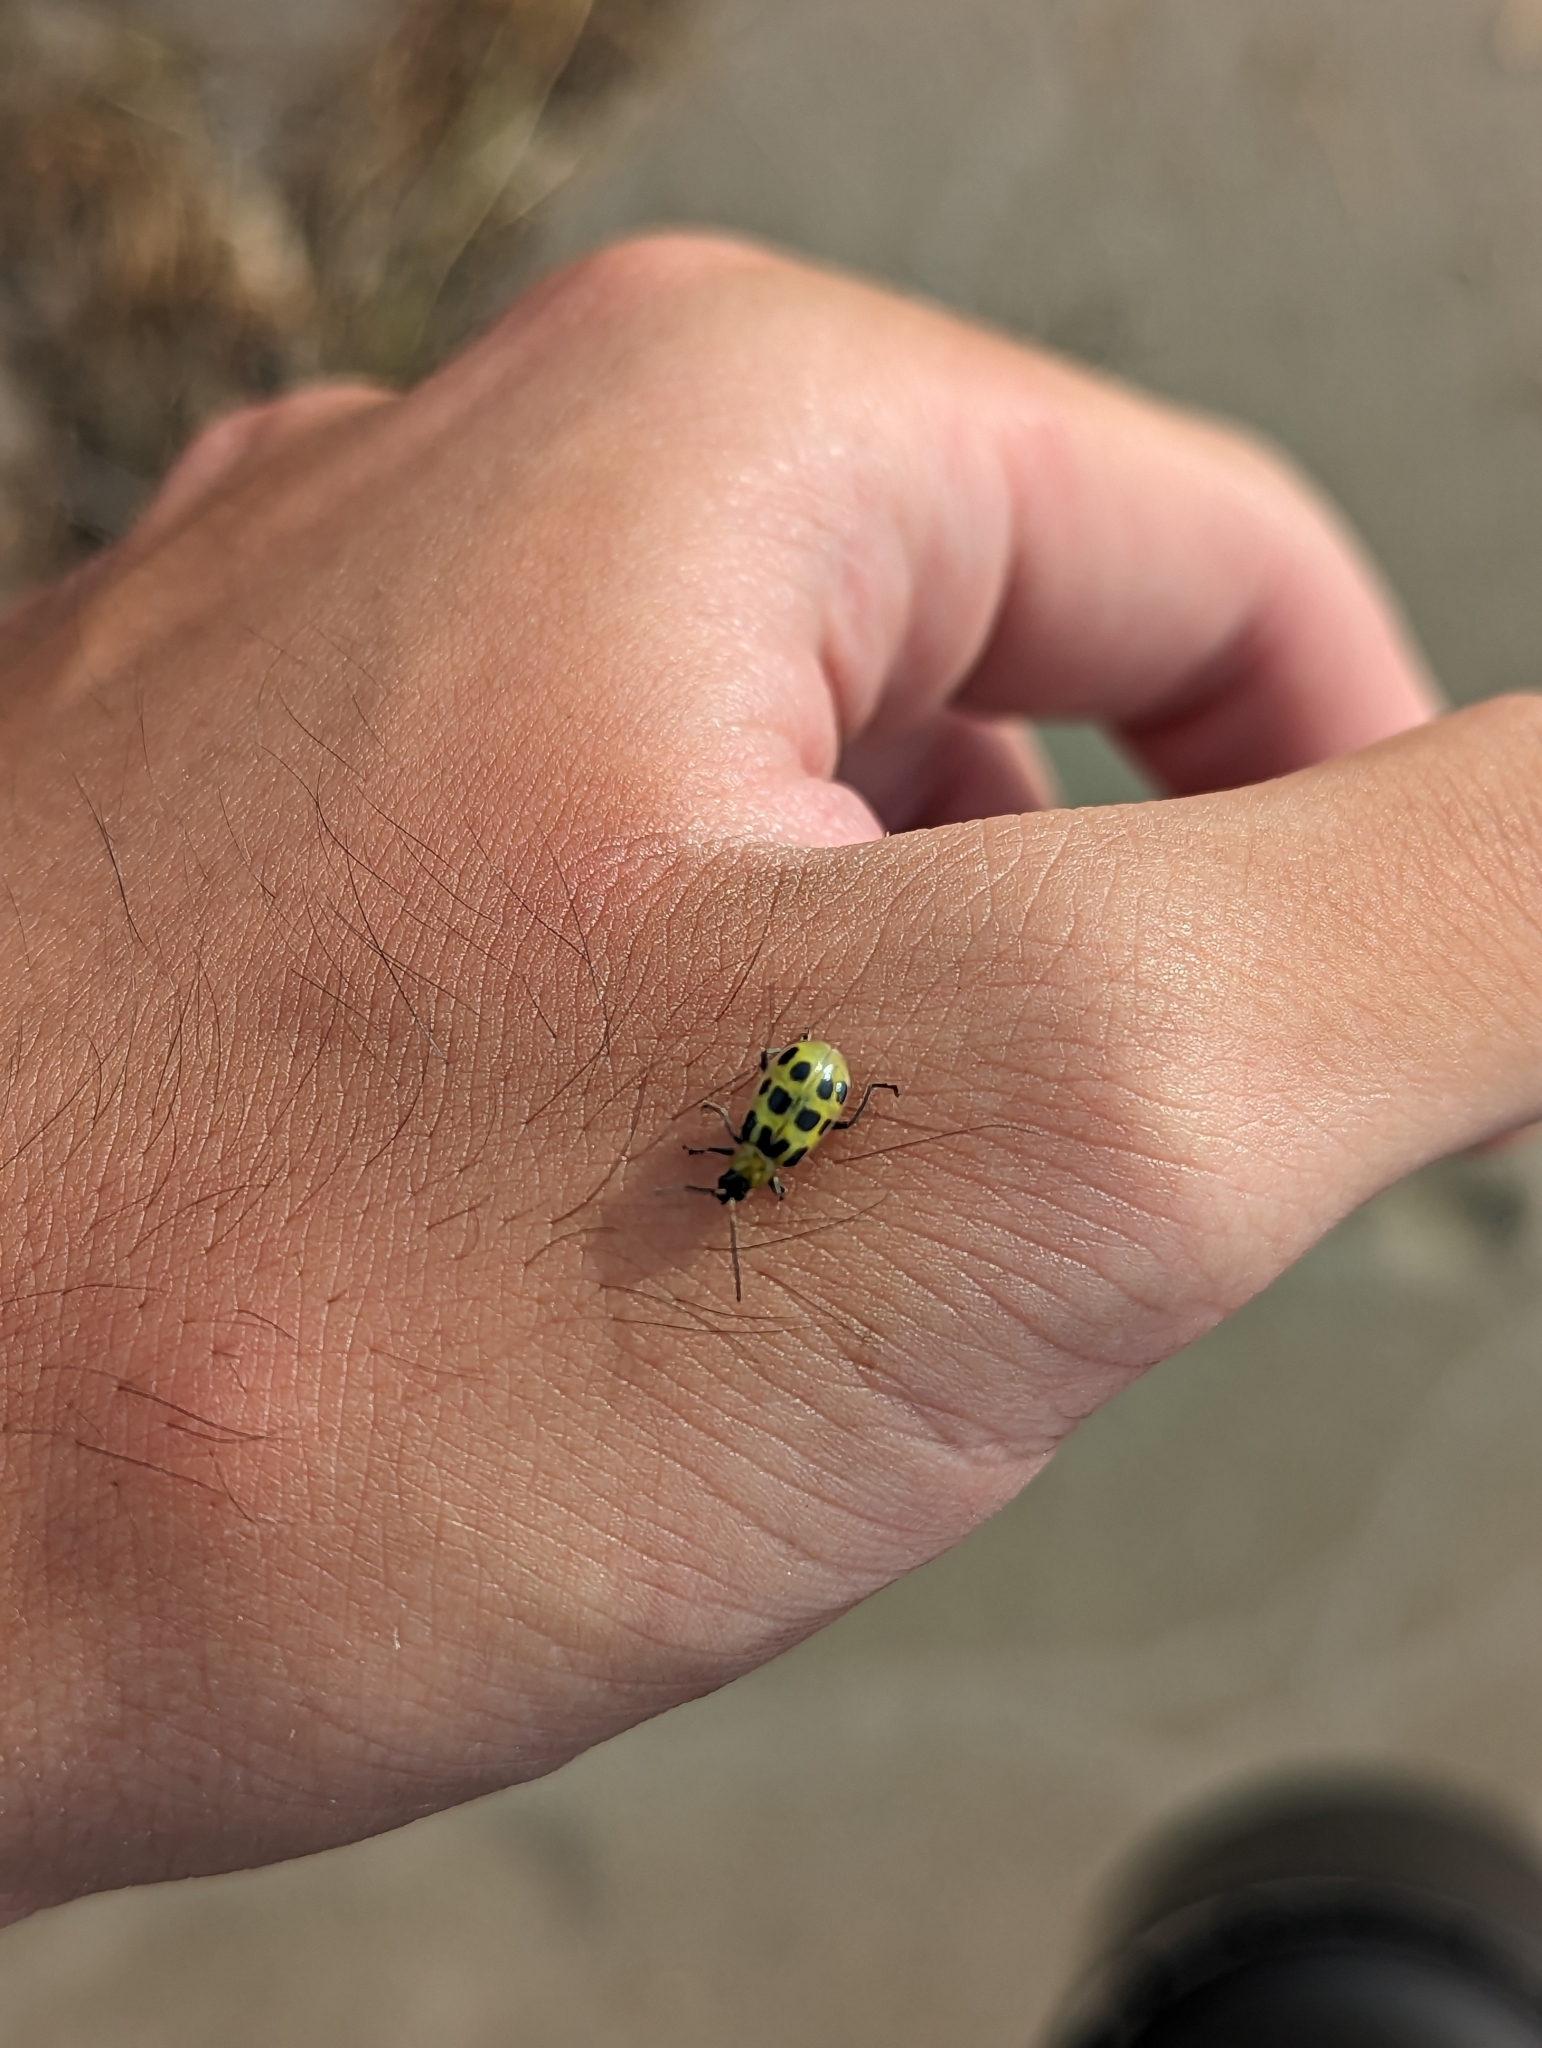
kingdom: Animalia
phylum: Arthropoda
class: Insecta
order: Coleoptera
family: Chrysomelidae
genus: Diabrotica
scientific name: Diabrotica undecimpunctata
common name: Spotted cucumber beetle
